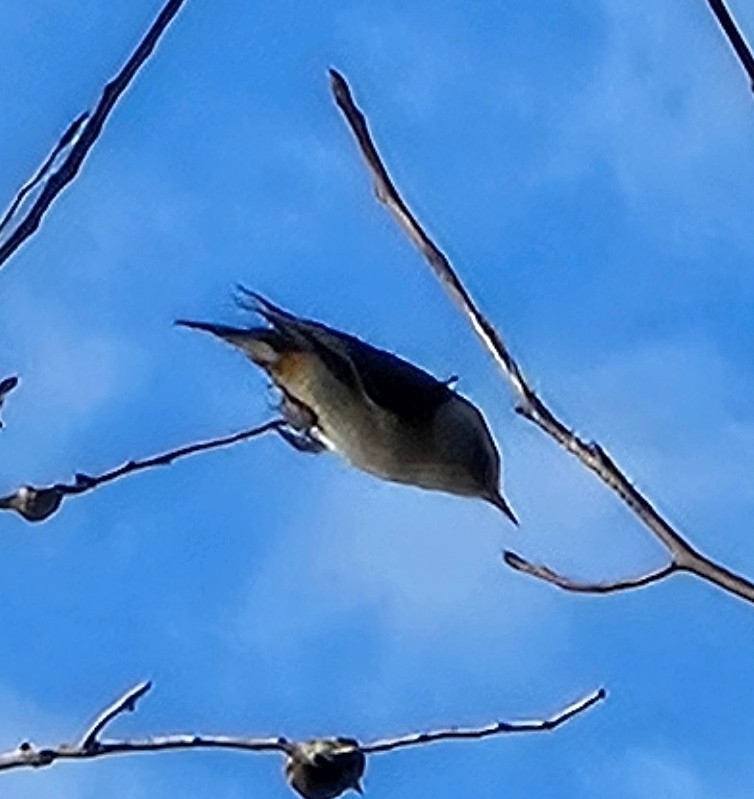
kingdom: Animalia
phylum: Chordata
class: Aves
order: Passeriformes
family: Sittidae
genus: Sitta
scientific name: Sitta carolinensis
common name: White-breasted nuthatch
